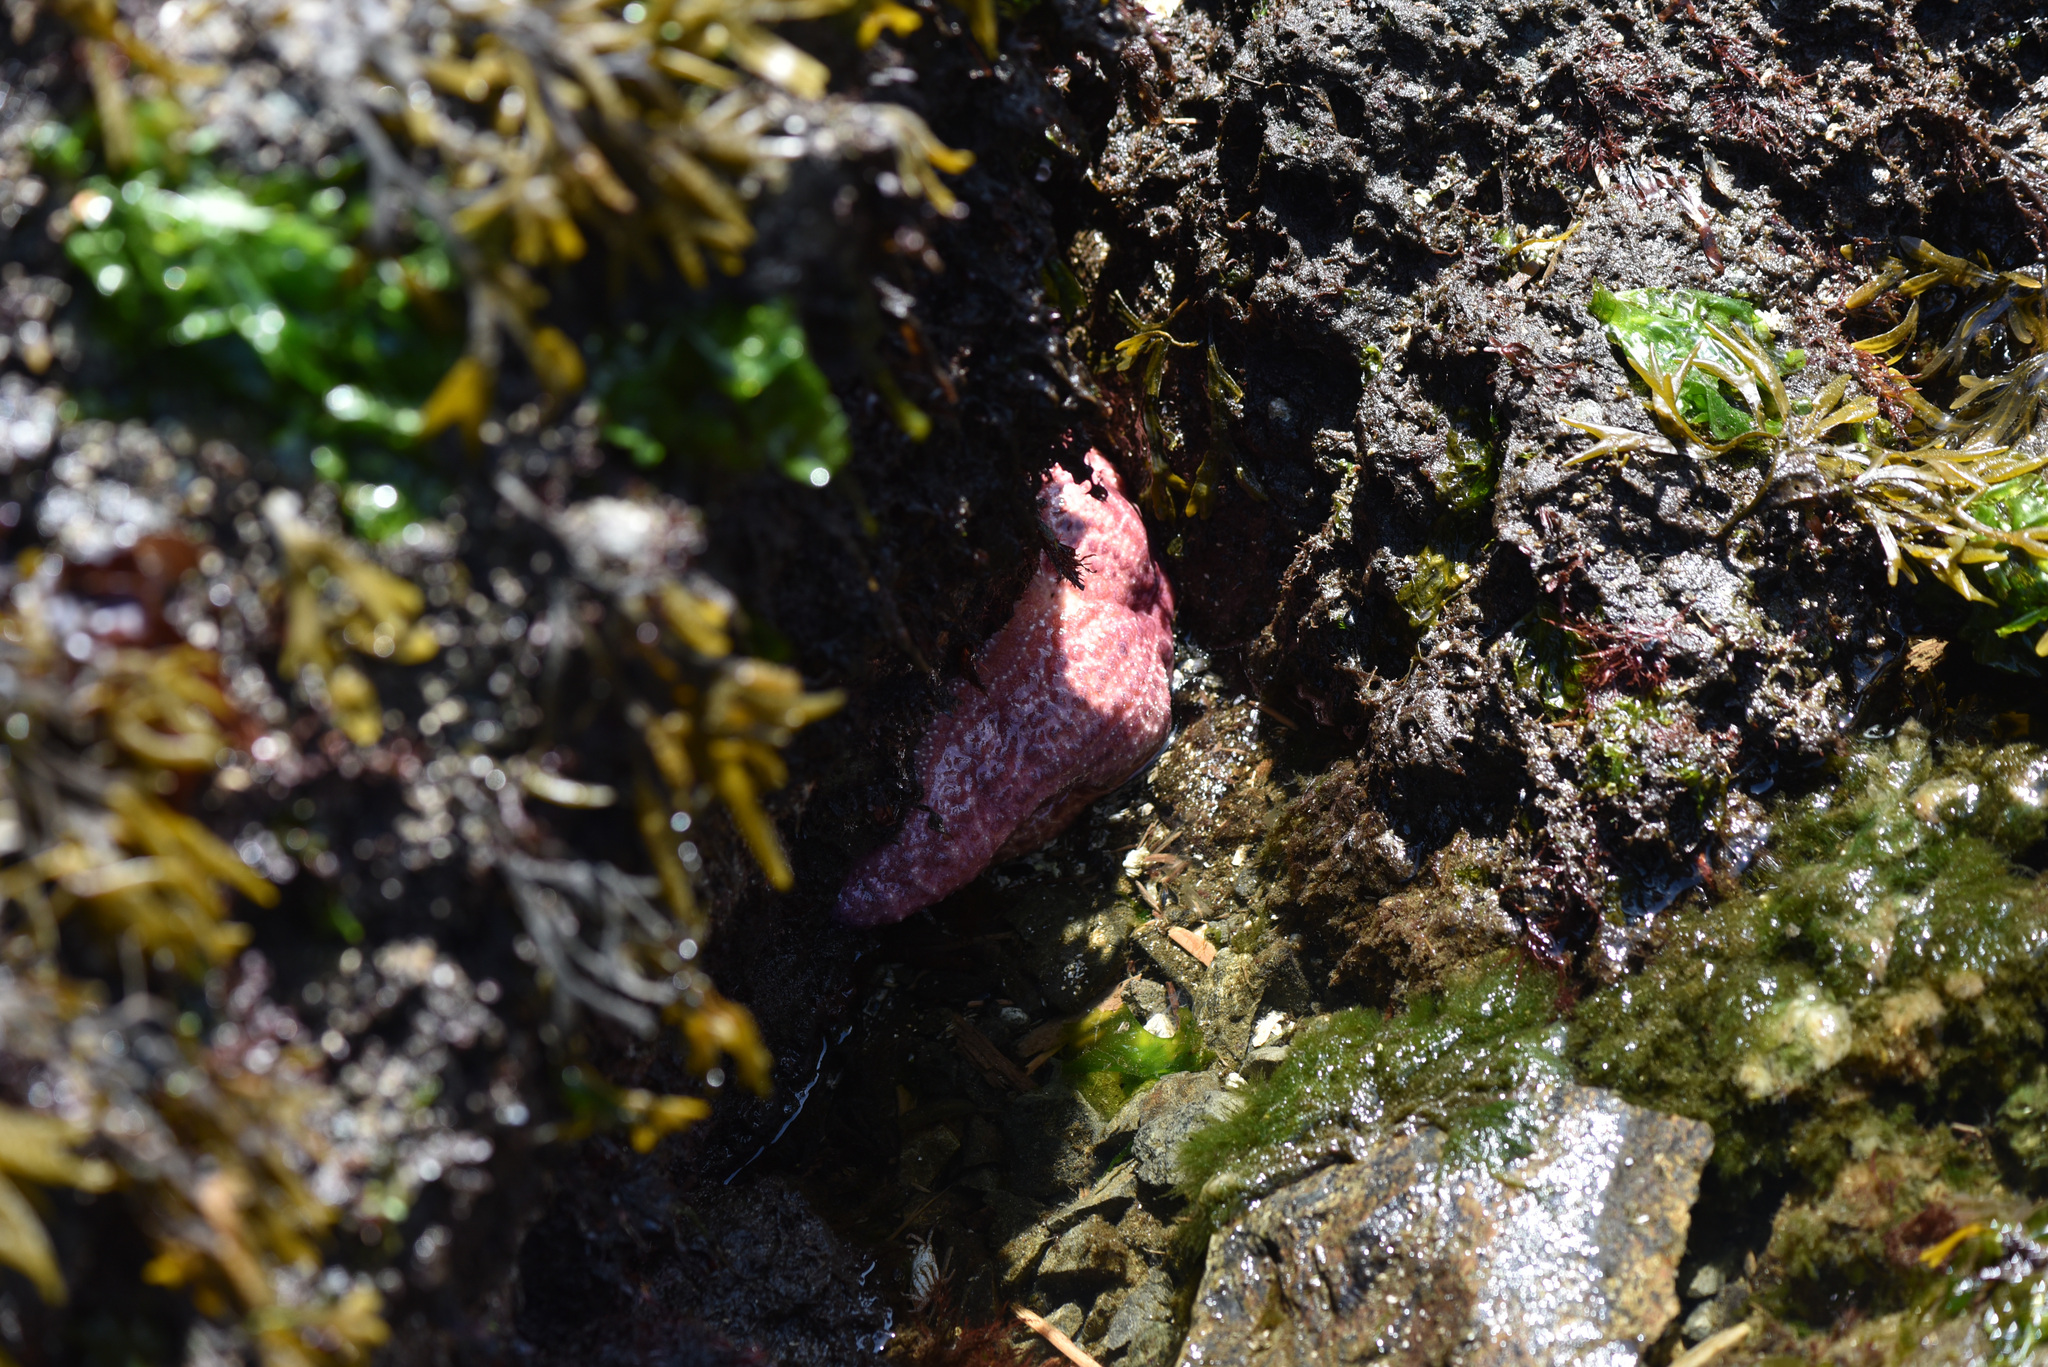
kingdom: Animalia
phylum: Echinodermata
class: Asteroidea
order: Forcipulatida
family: Asteriidae
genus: Pisaster
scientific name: Pisaster ochraceus
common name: Ochre stars
